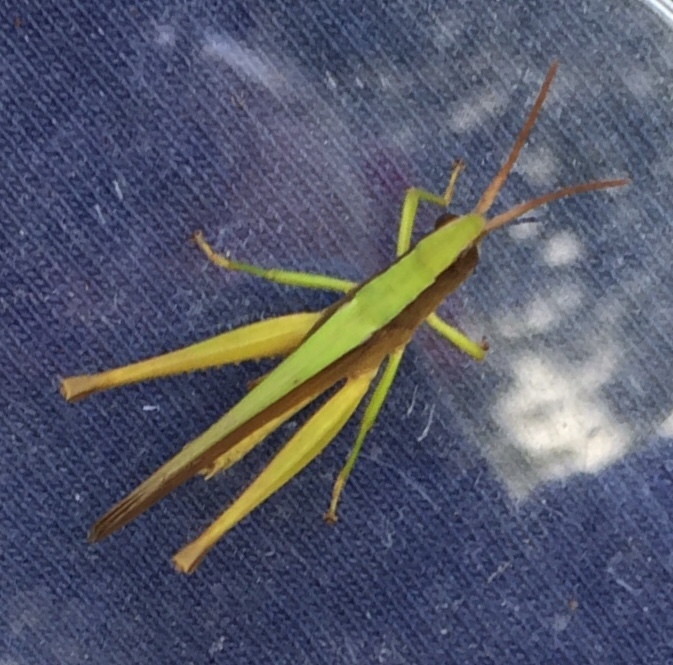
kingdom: Animalia
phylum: Arthropoda
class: Insecta
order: Orthoptera
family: Acrididae
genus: Metaleptea
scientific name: Metaleptea brevicornis
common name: Clipped-wing grasshopper
